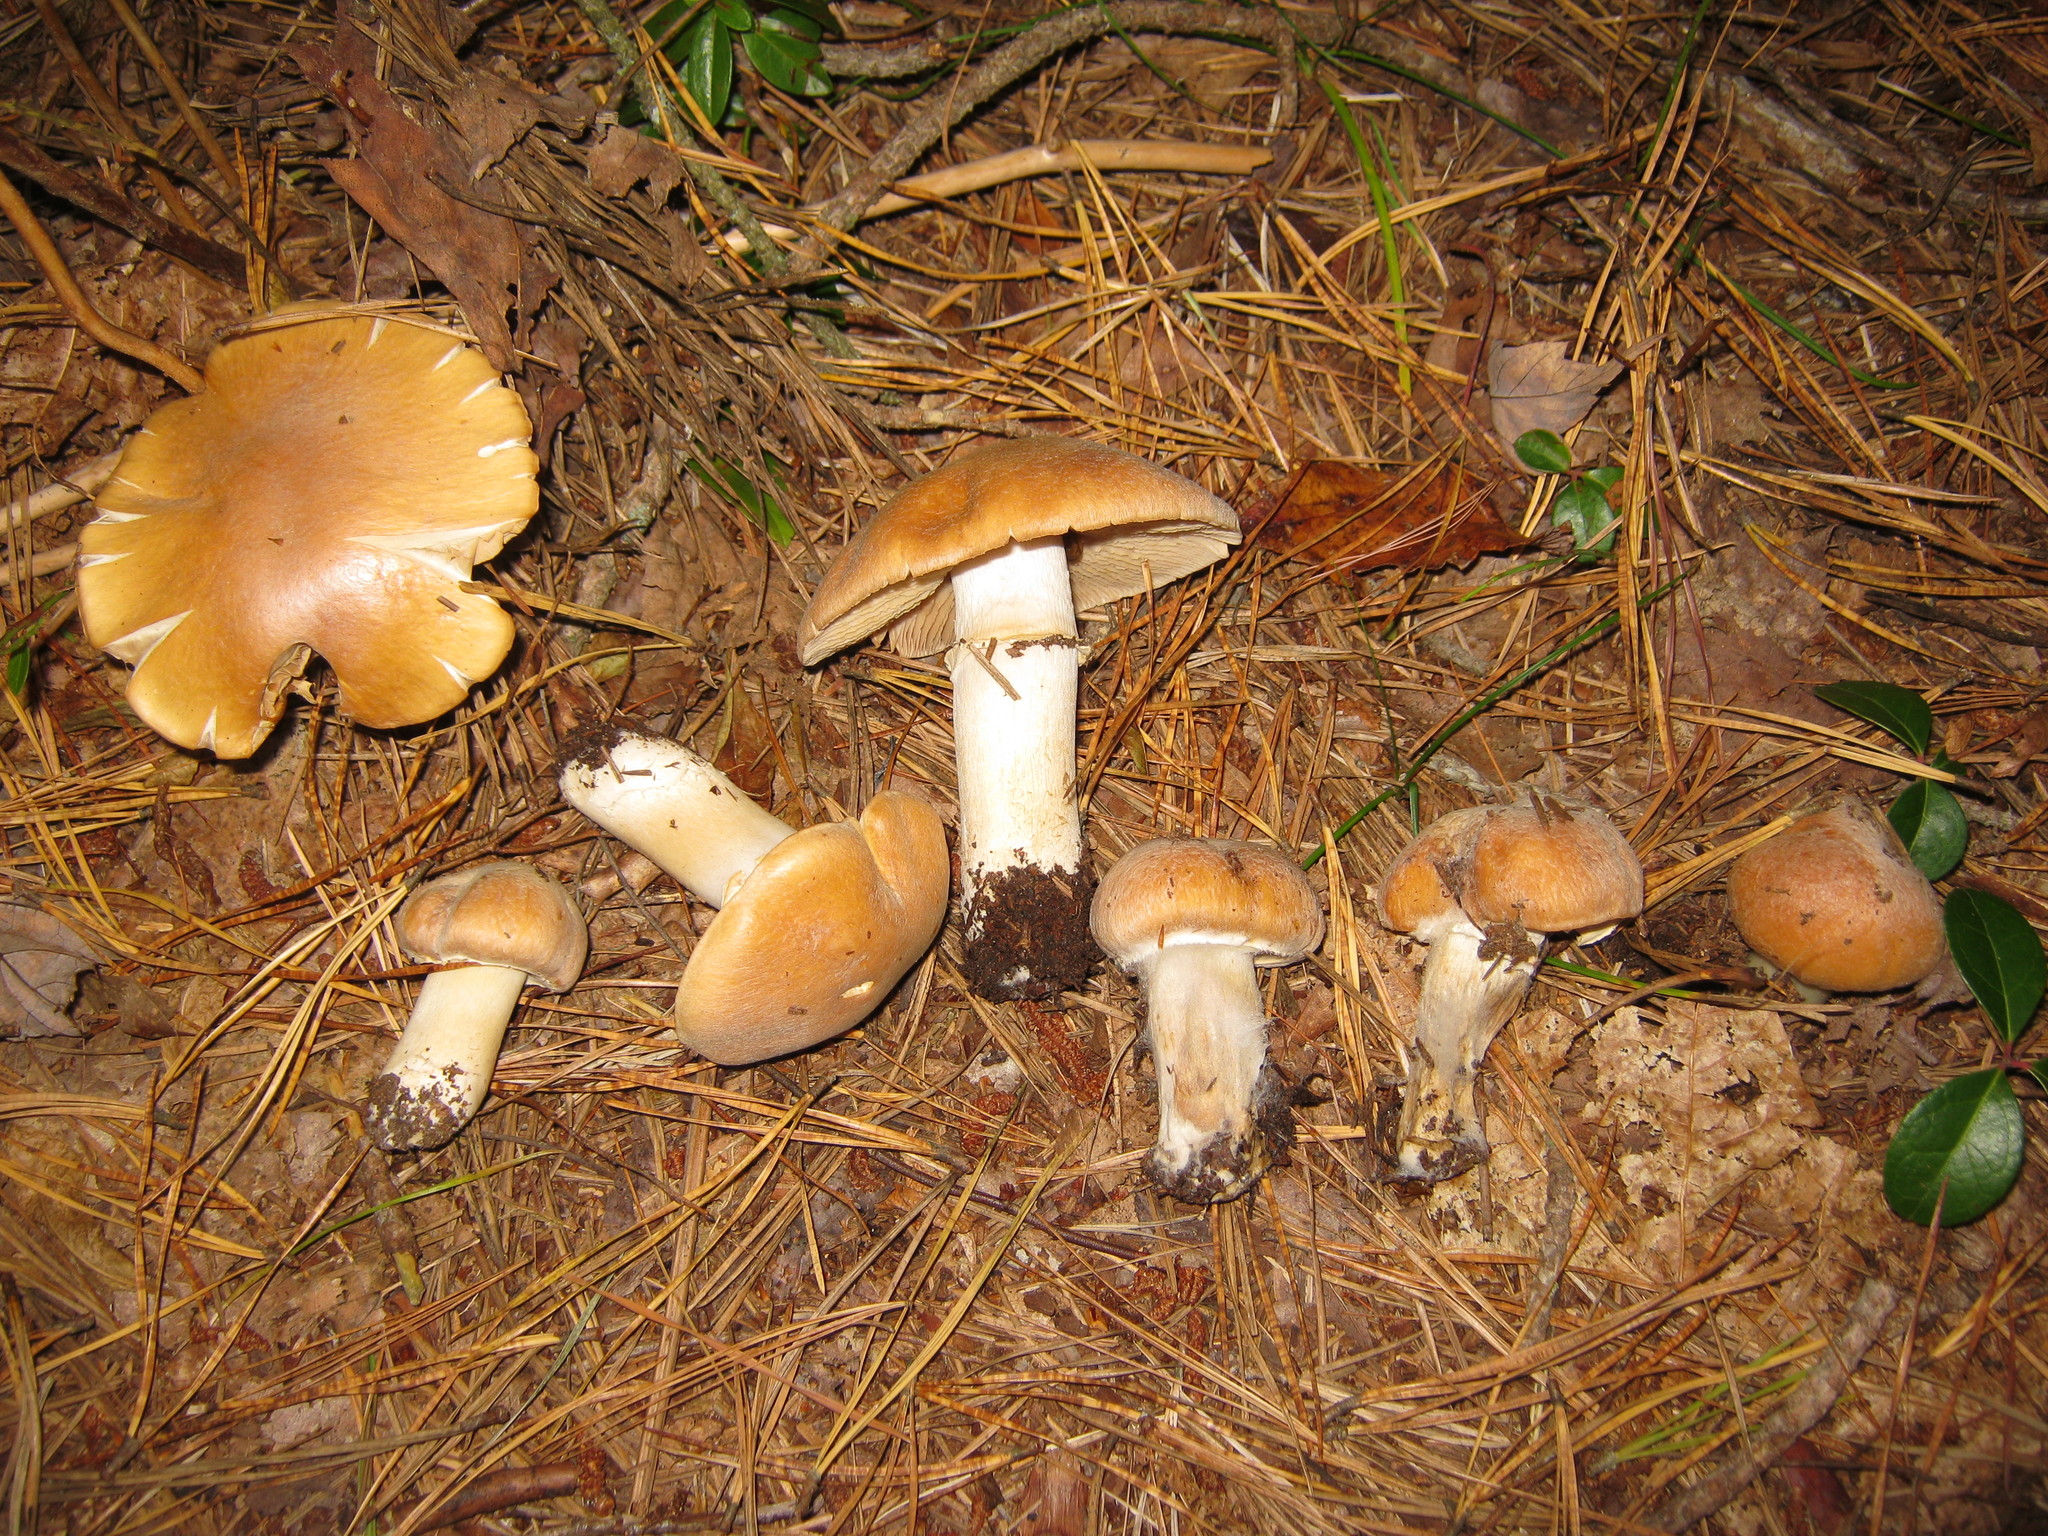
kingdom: Fungi
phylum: Basidiomycota
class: Agaricomycetes
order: Agaricales
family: Cortinariaceae
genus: Cortinarius
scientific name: Cortinarius caperatus
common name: The gypsy
